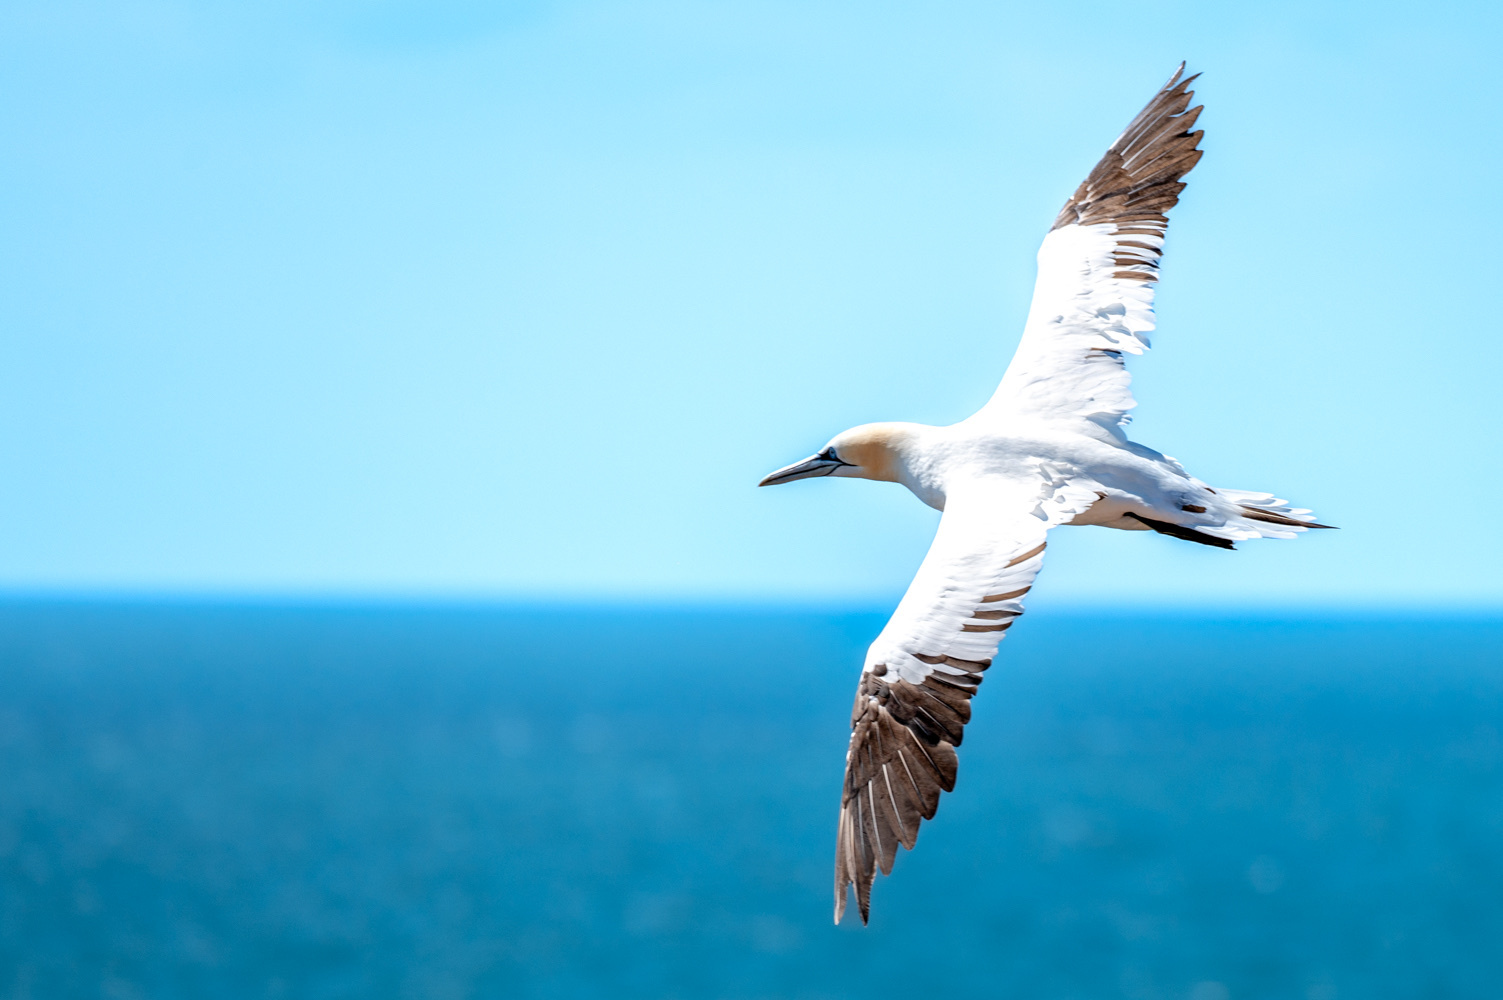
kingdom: Animalia
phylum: Chordata
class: Aves
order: Suliformes
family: Sulidae
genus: Morus
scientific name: Morus bassanus
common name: Northern gannet
